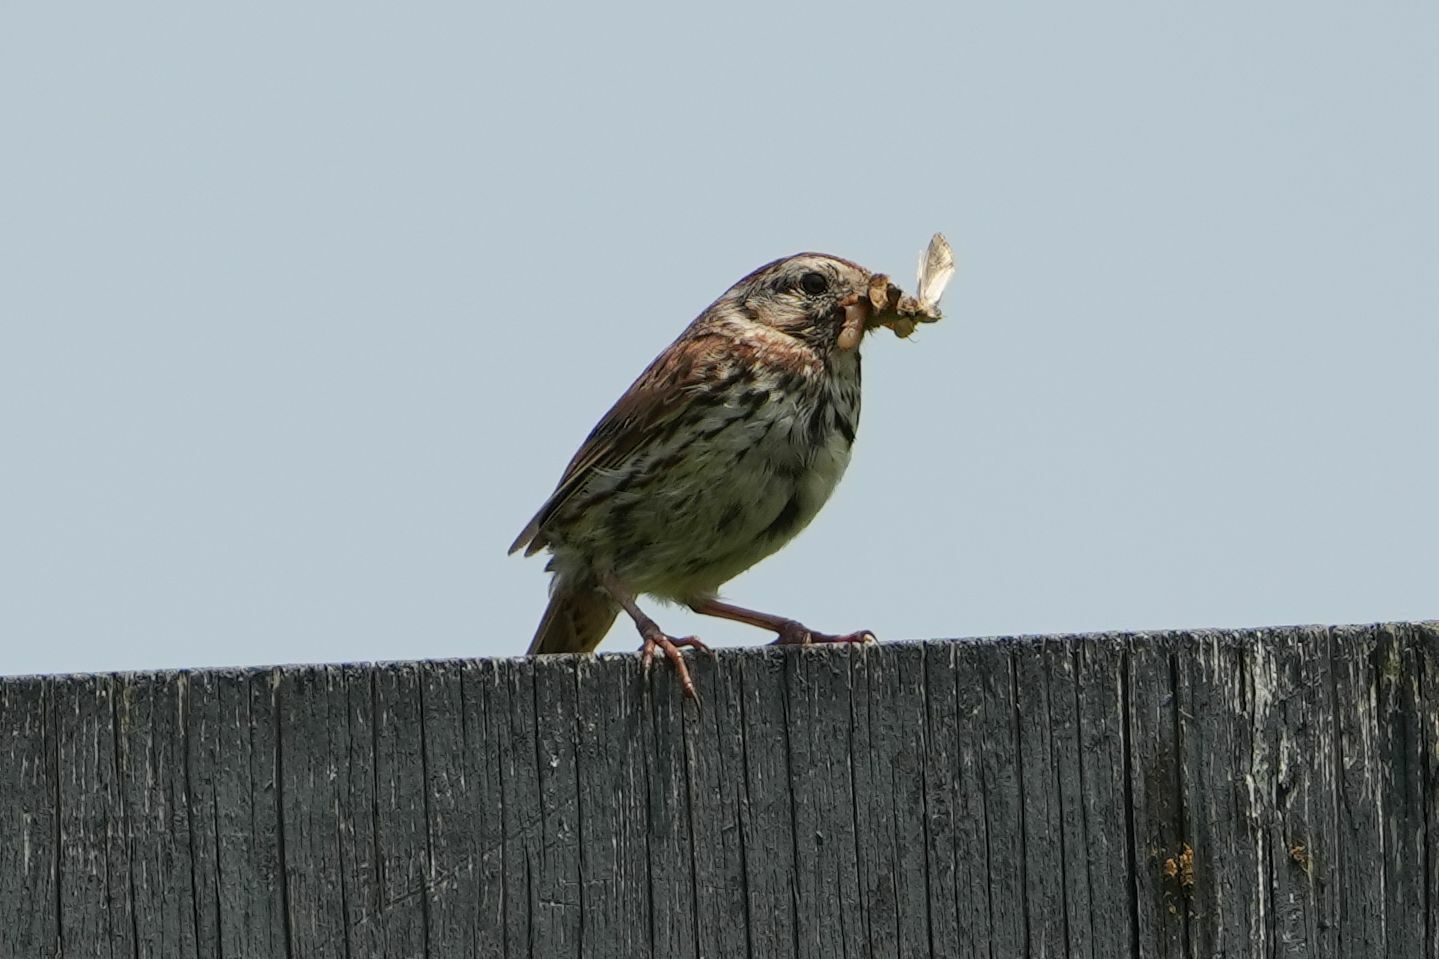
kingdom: Animalia
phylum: Chordata
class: Aves
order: Passeriformes
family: Passerellidae
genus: Melospiza
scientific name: Melospiza melodia
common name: Song sparrow
